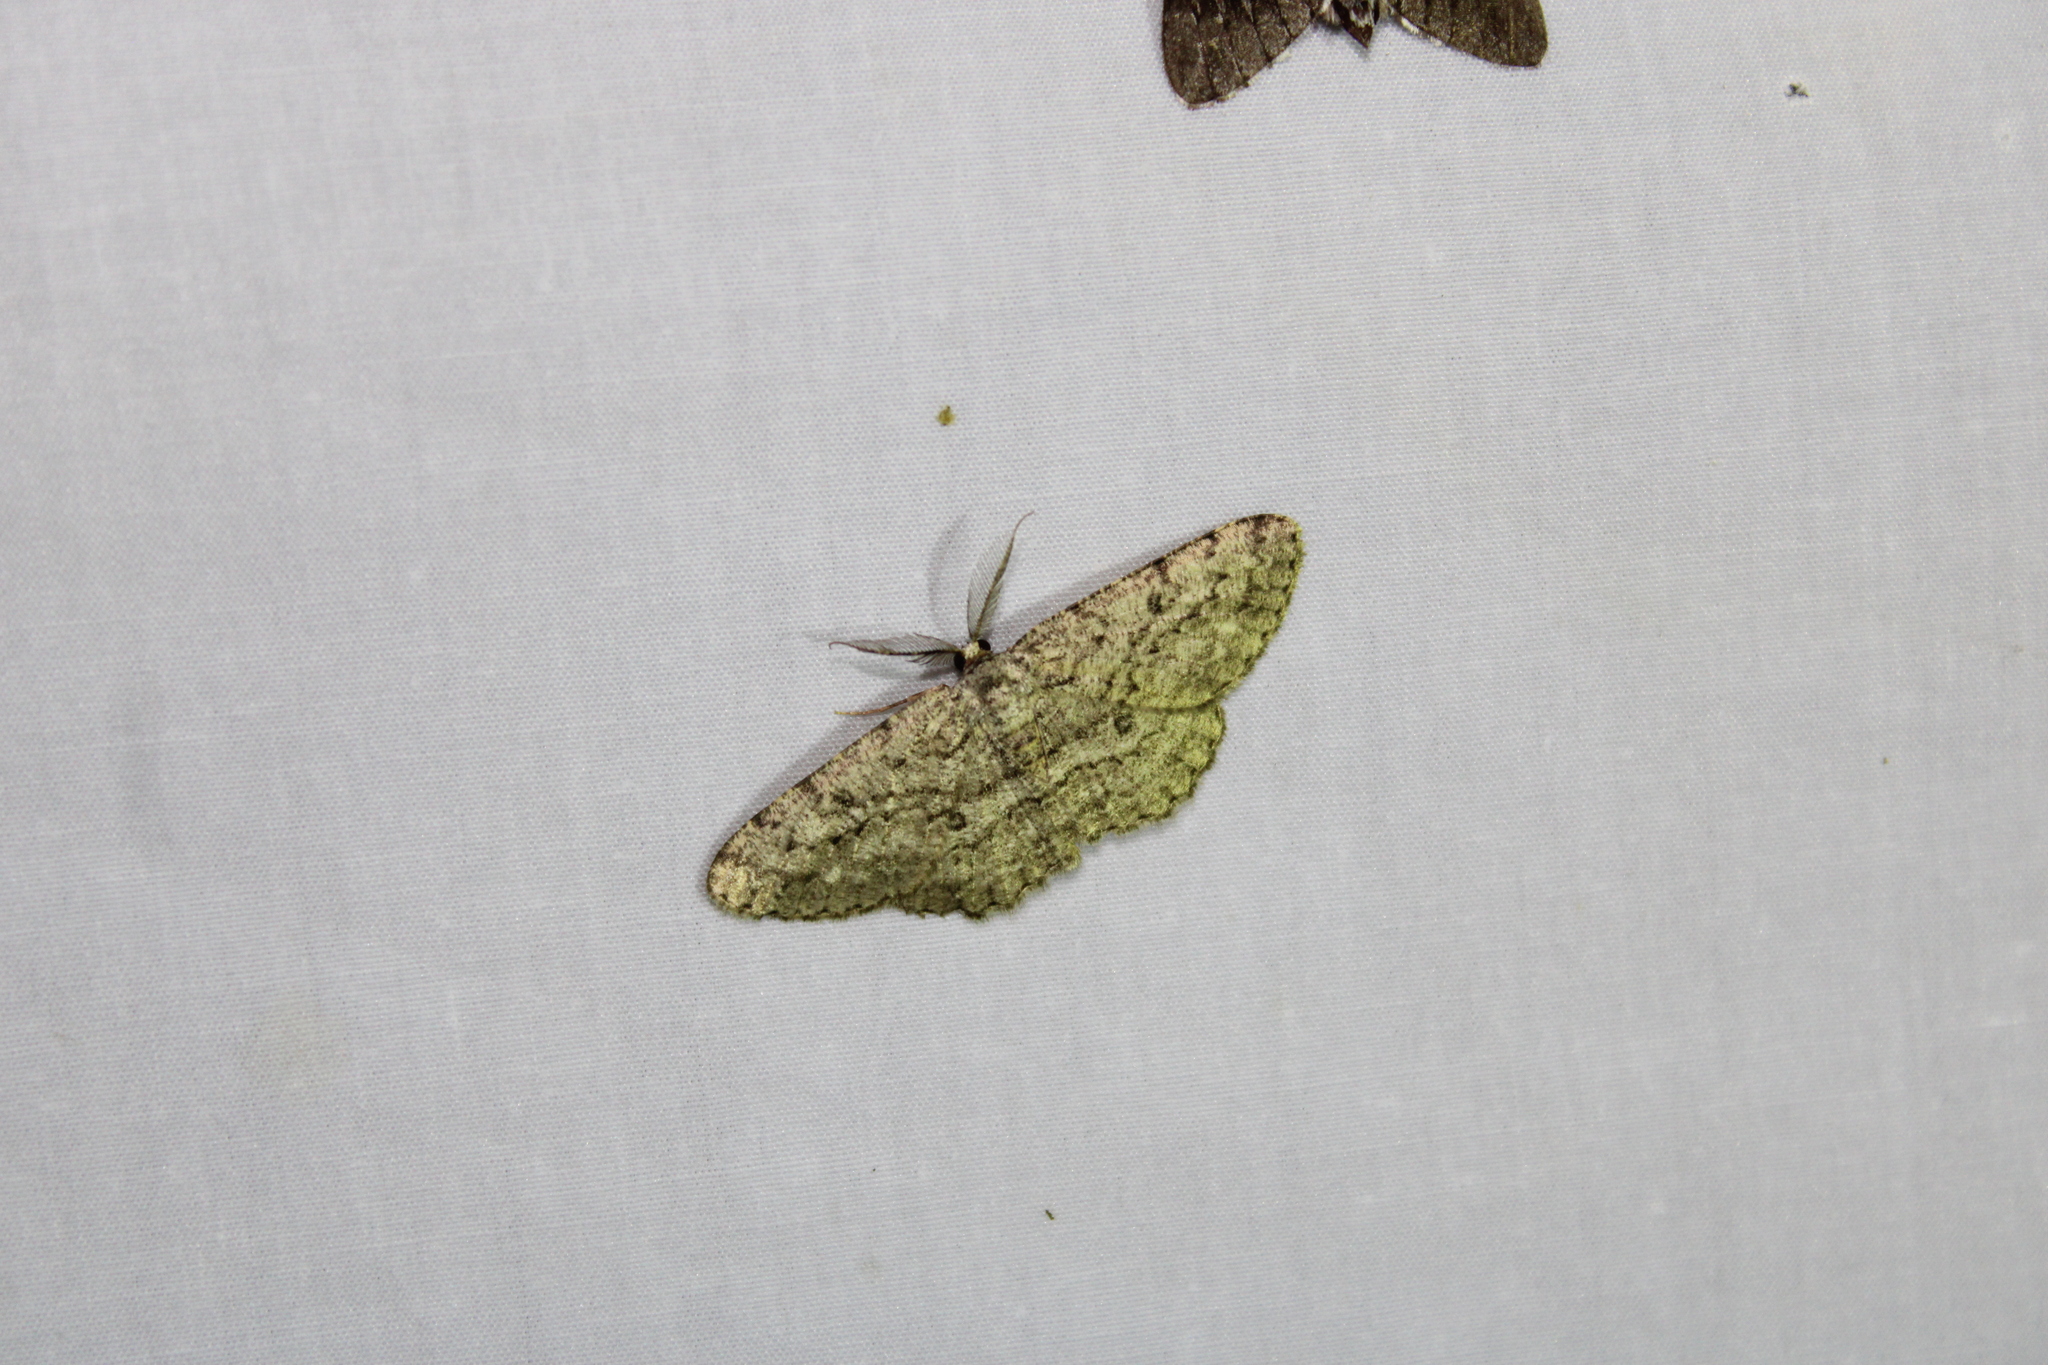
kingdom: Animalia
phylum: Arthropoda
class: Insecta
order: Lepidoptera
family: Geometridae
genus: Hypomecis
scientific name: Hypomecis umbrosaria
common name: Umber moth
